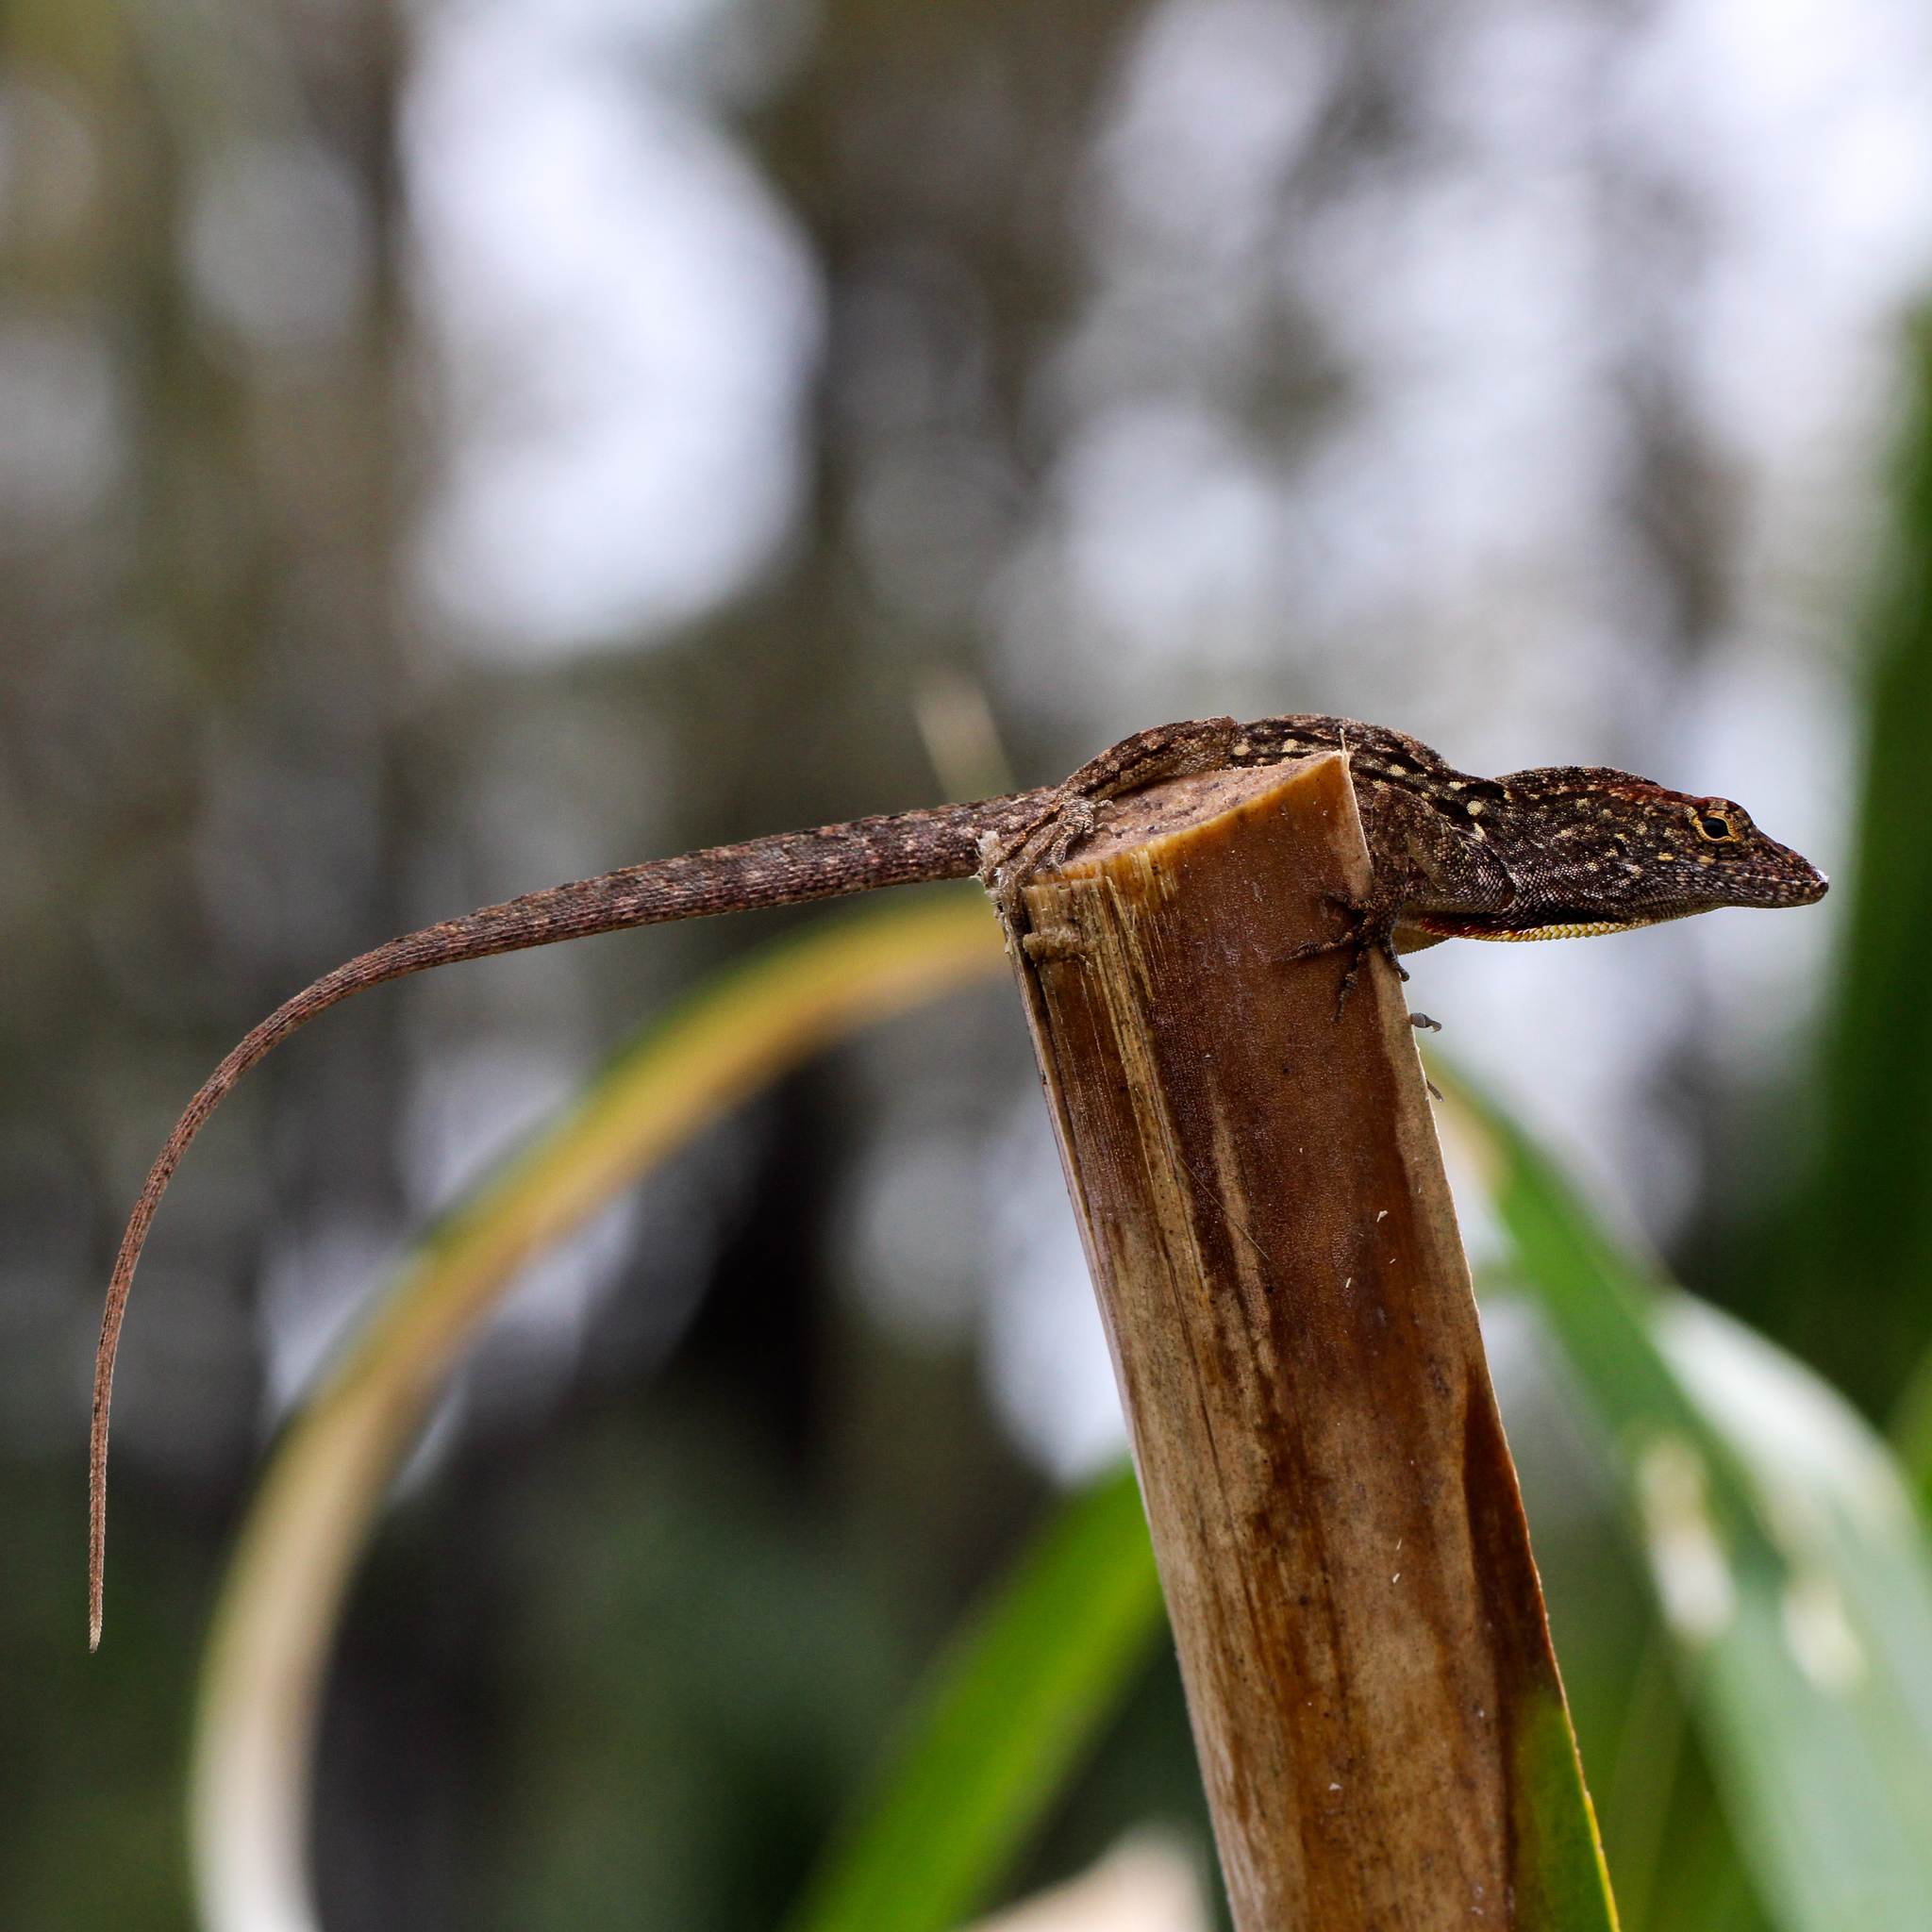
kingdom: Animalia
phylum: Chordata
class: Squamata
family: Dactyloidae
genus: Anolis
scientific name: Anolis sagrei
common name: Brown anole
